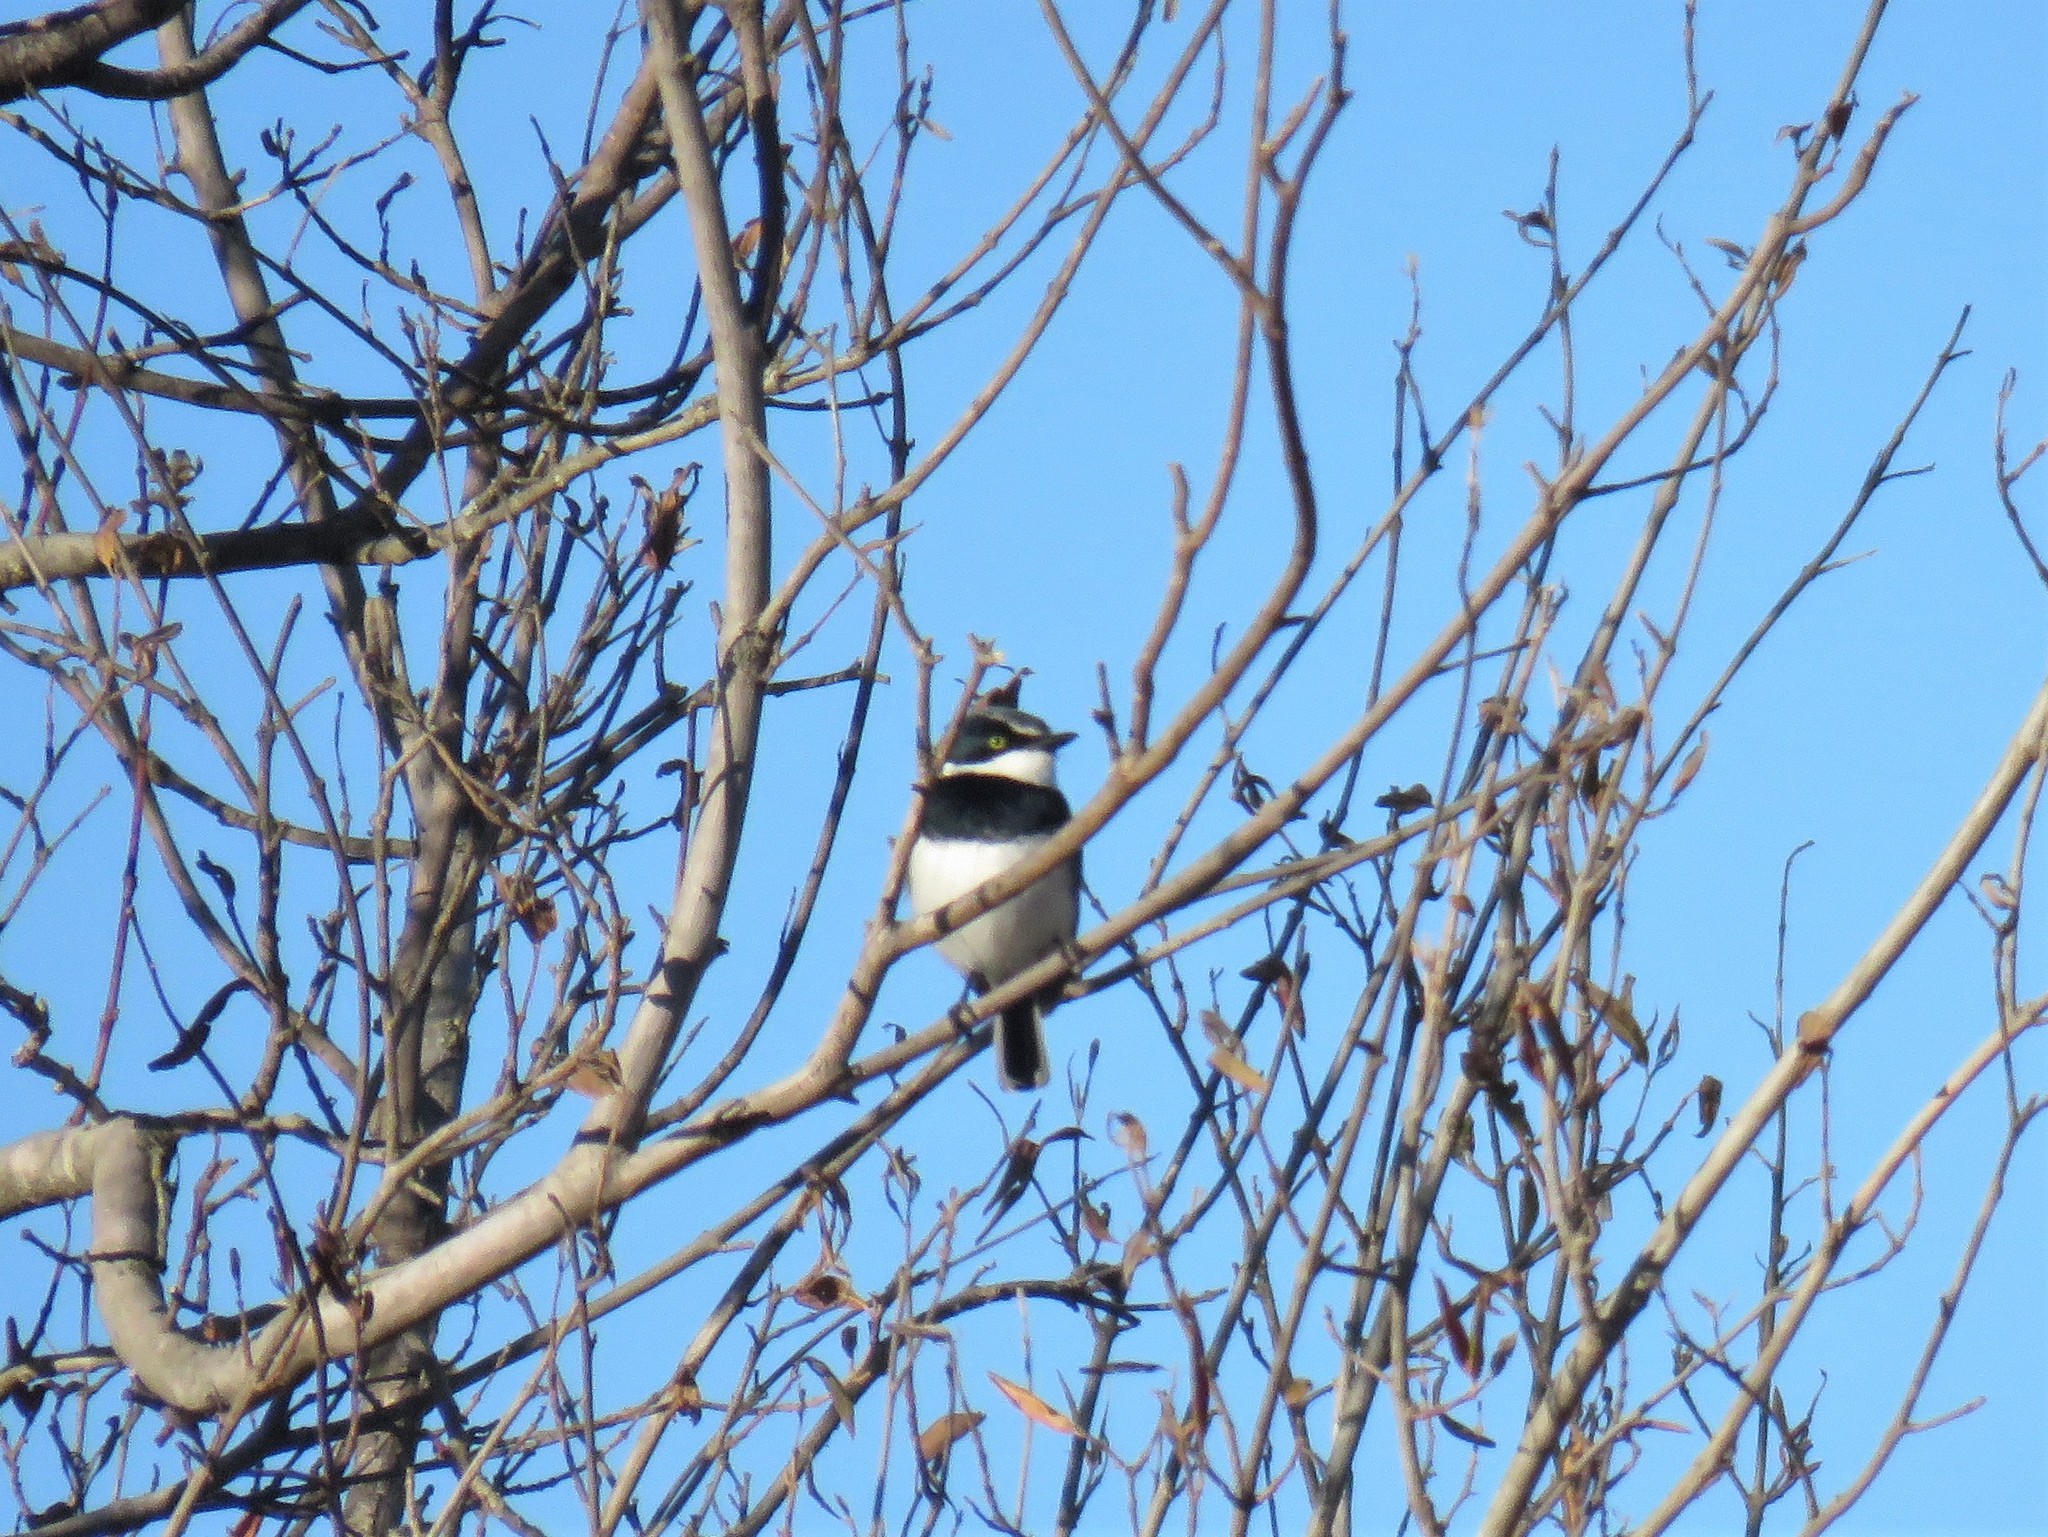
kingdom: Animalia
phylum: Chordata
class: Aves
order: Passeriformes
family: Platysteiridae
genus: Batis
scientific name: Batis molitor
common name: Chinspot batis
